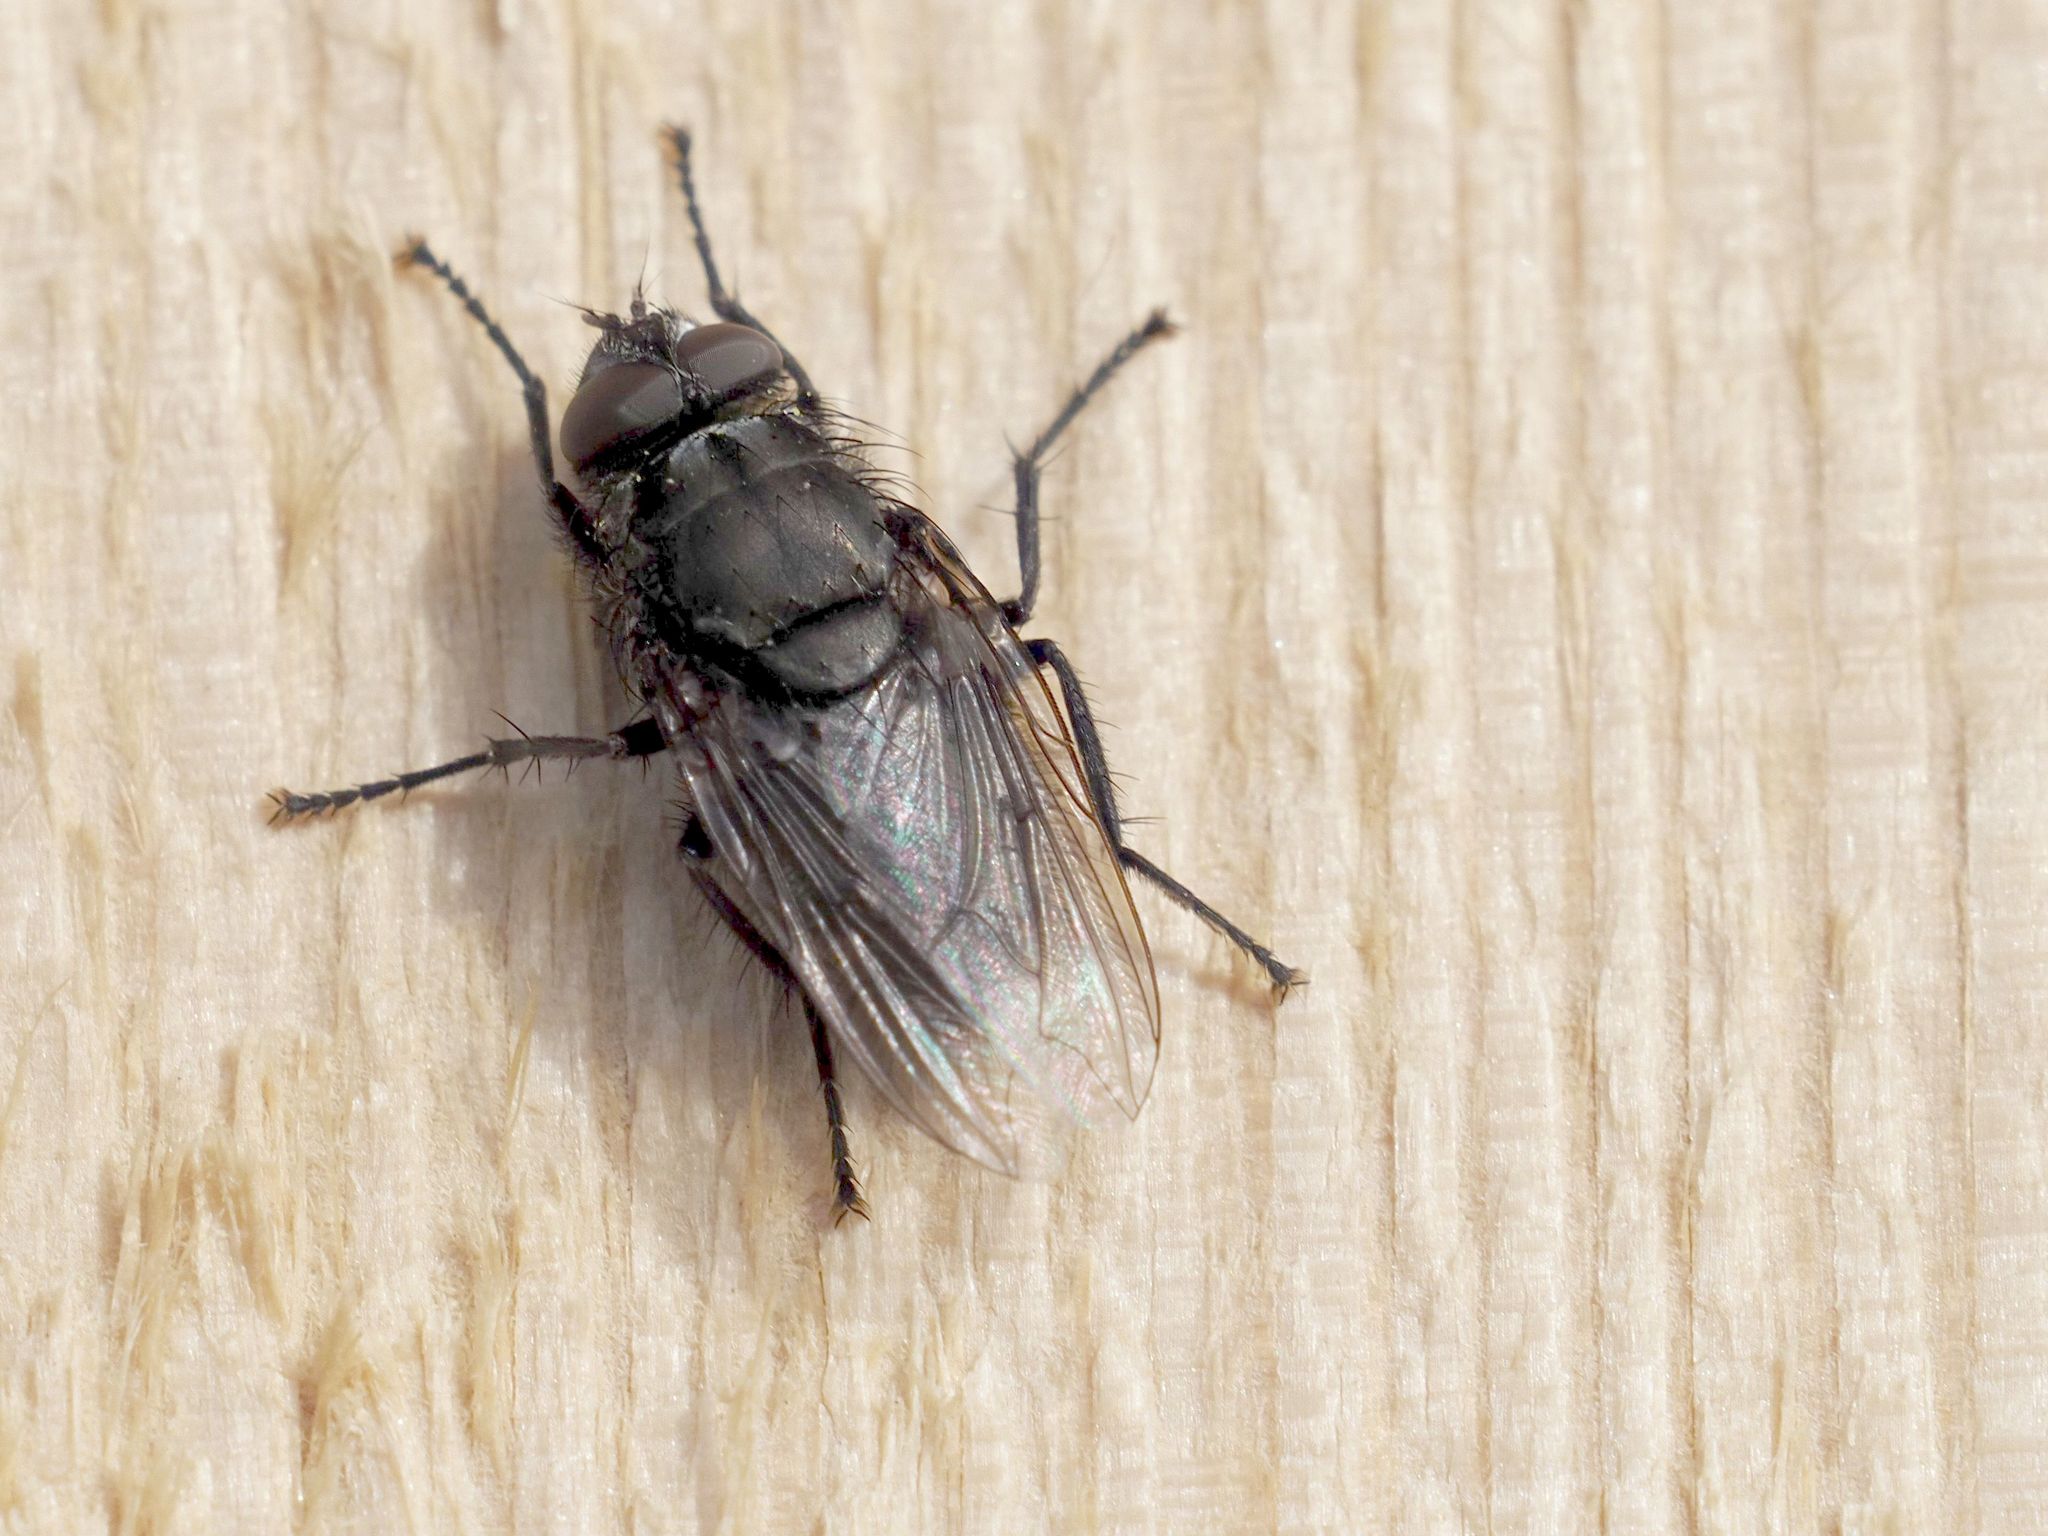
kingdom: Animalia
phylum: Arthropoda
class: Insecta
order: Diptera
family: Polleniidae
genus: Pollenia
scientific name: Pollenia vagabunda
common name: Vagabund cluster fly
